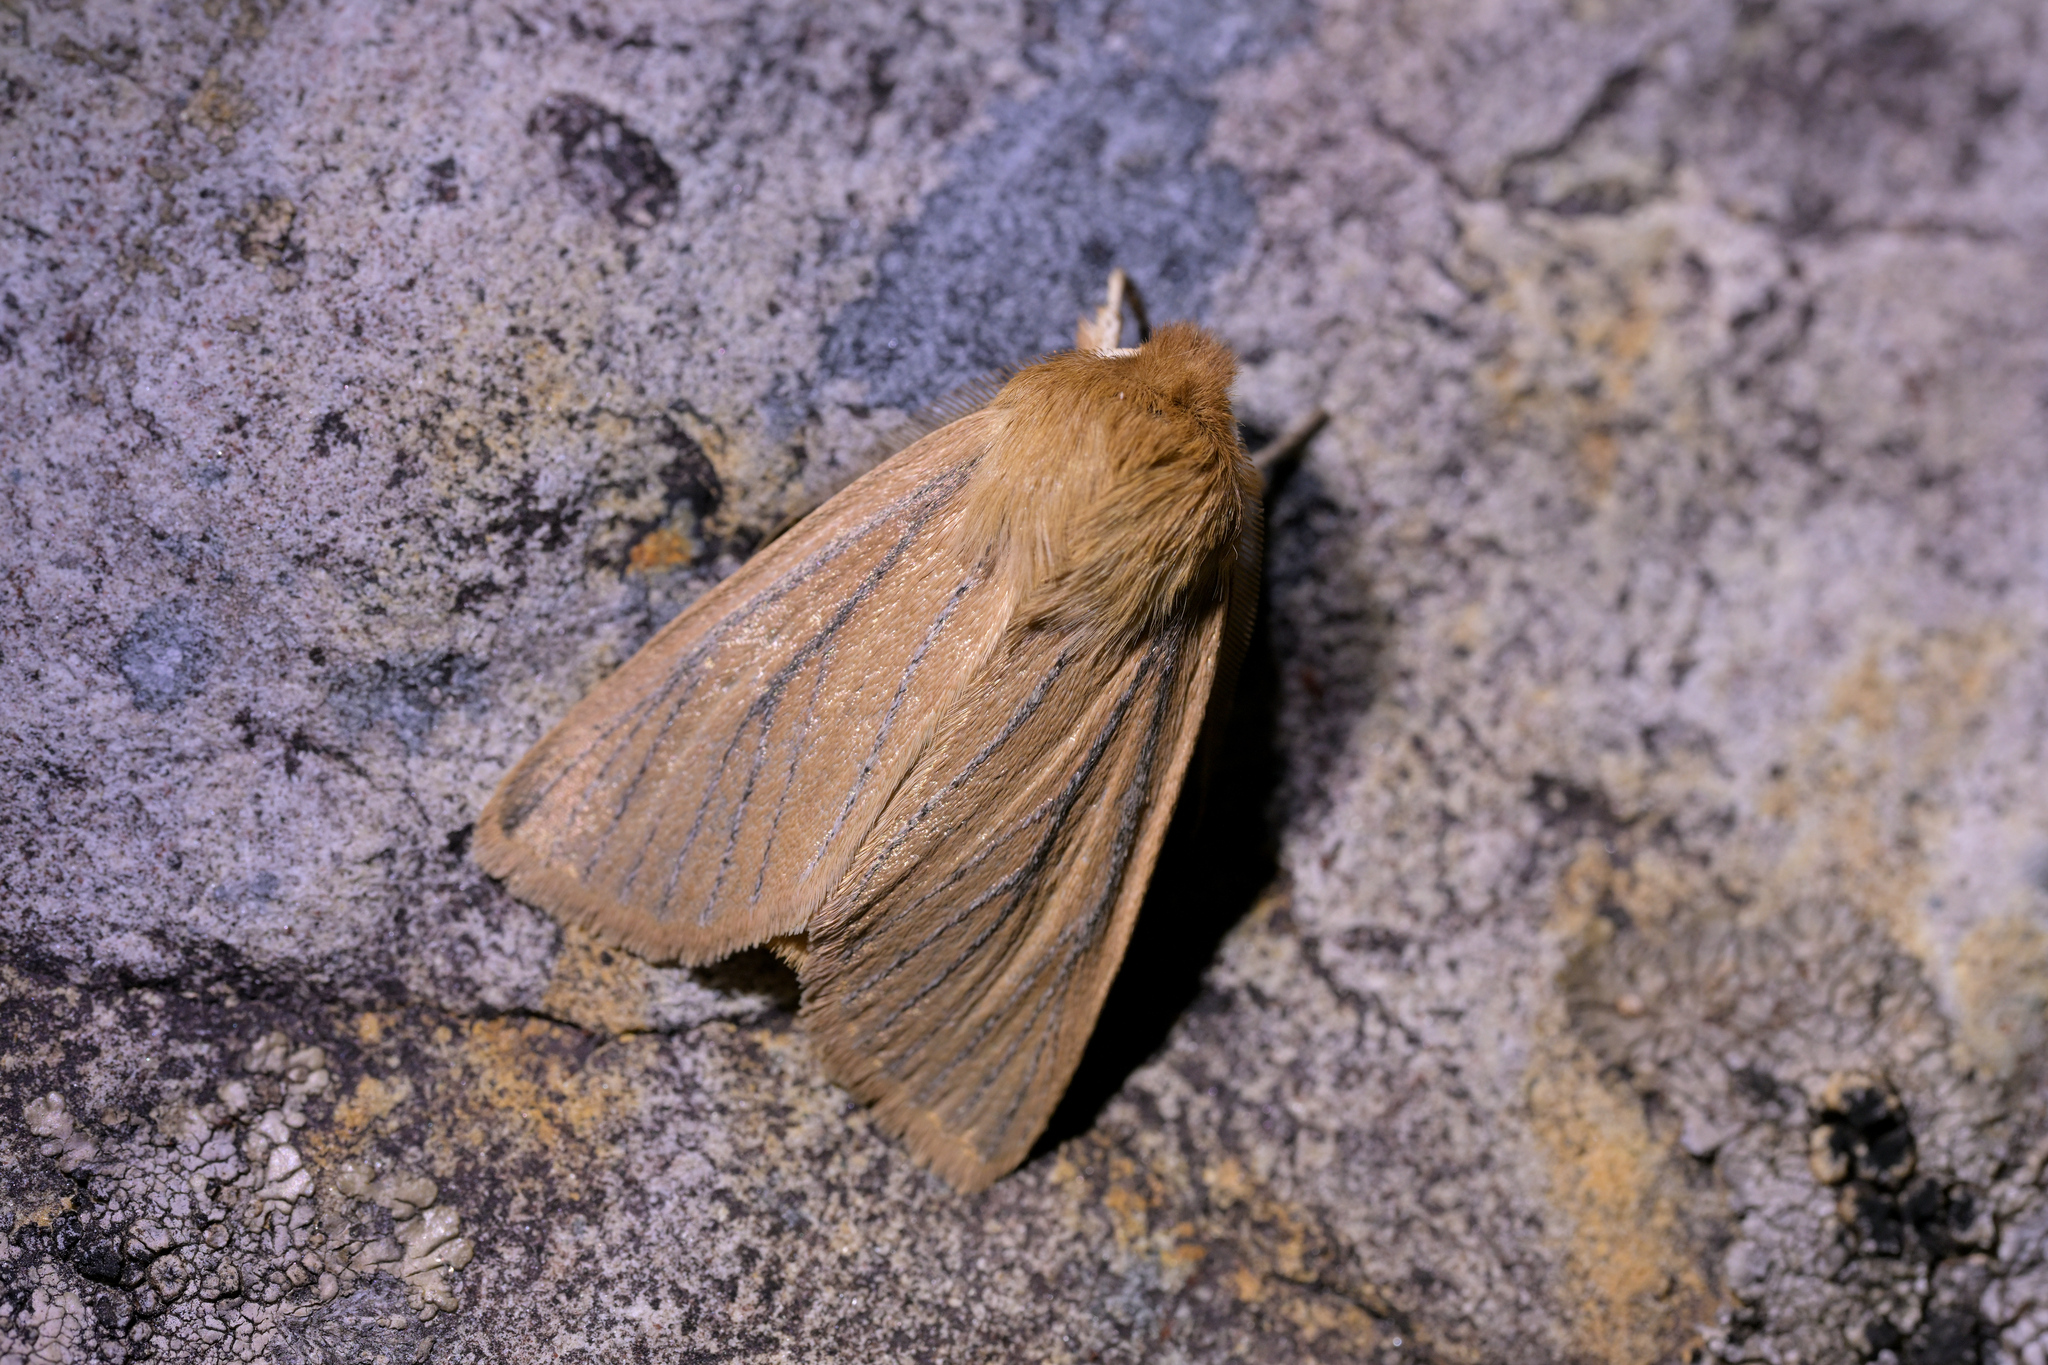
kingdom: Animalia
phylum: Arthropoda
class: Insecta
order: Lepidoptera
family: Noctuidae
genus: Ichneutica
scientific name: Ichneutica
